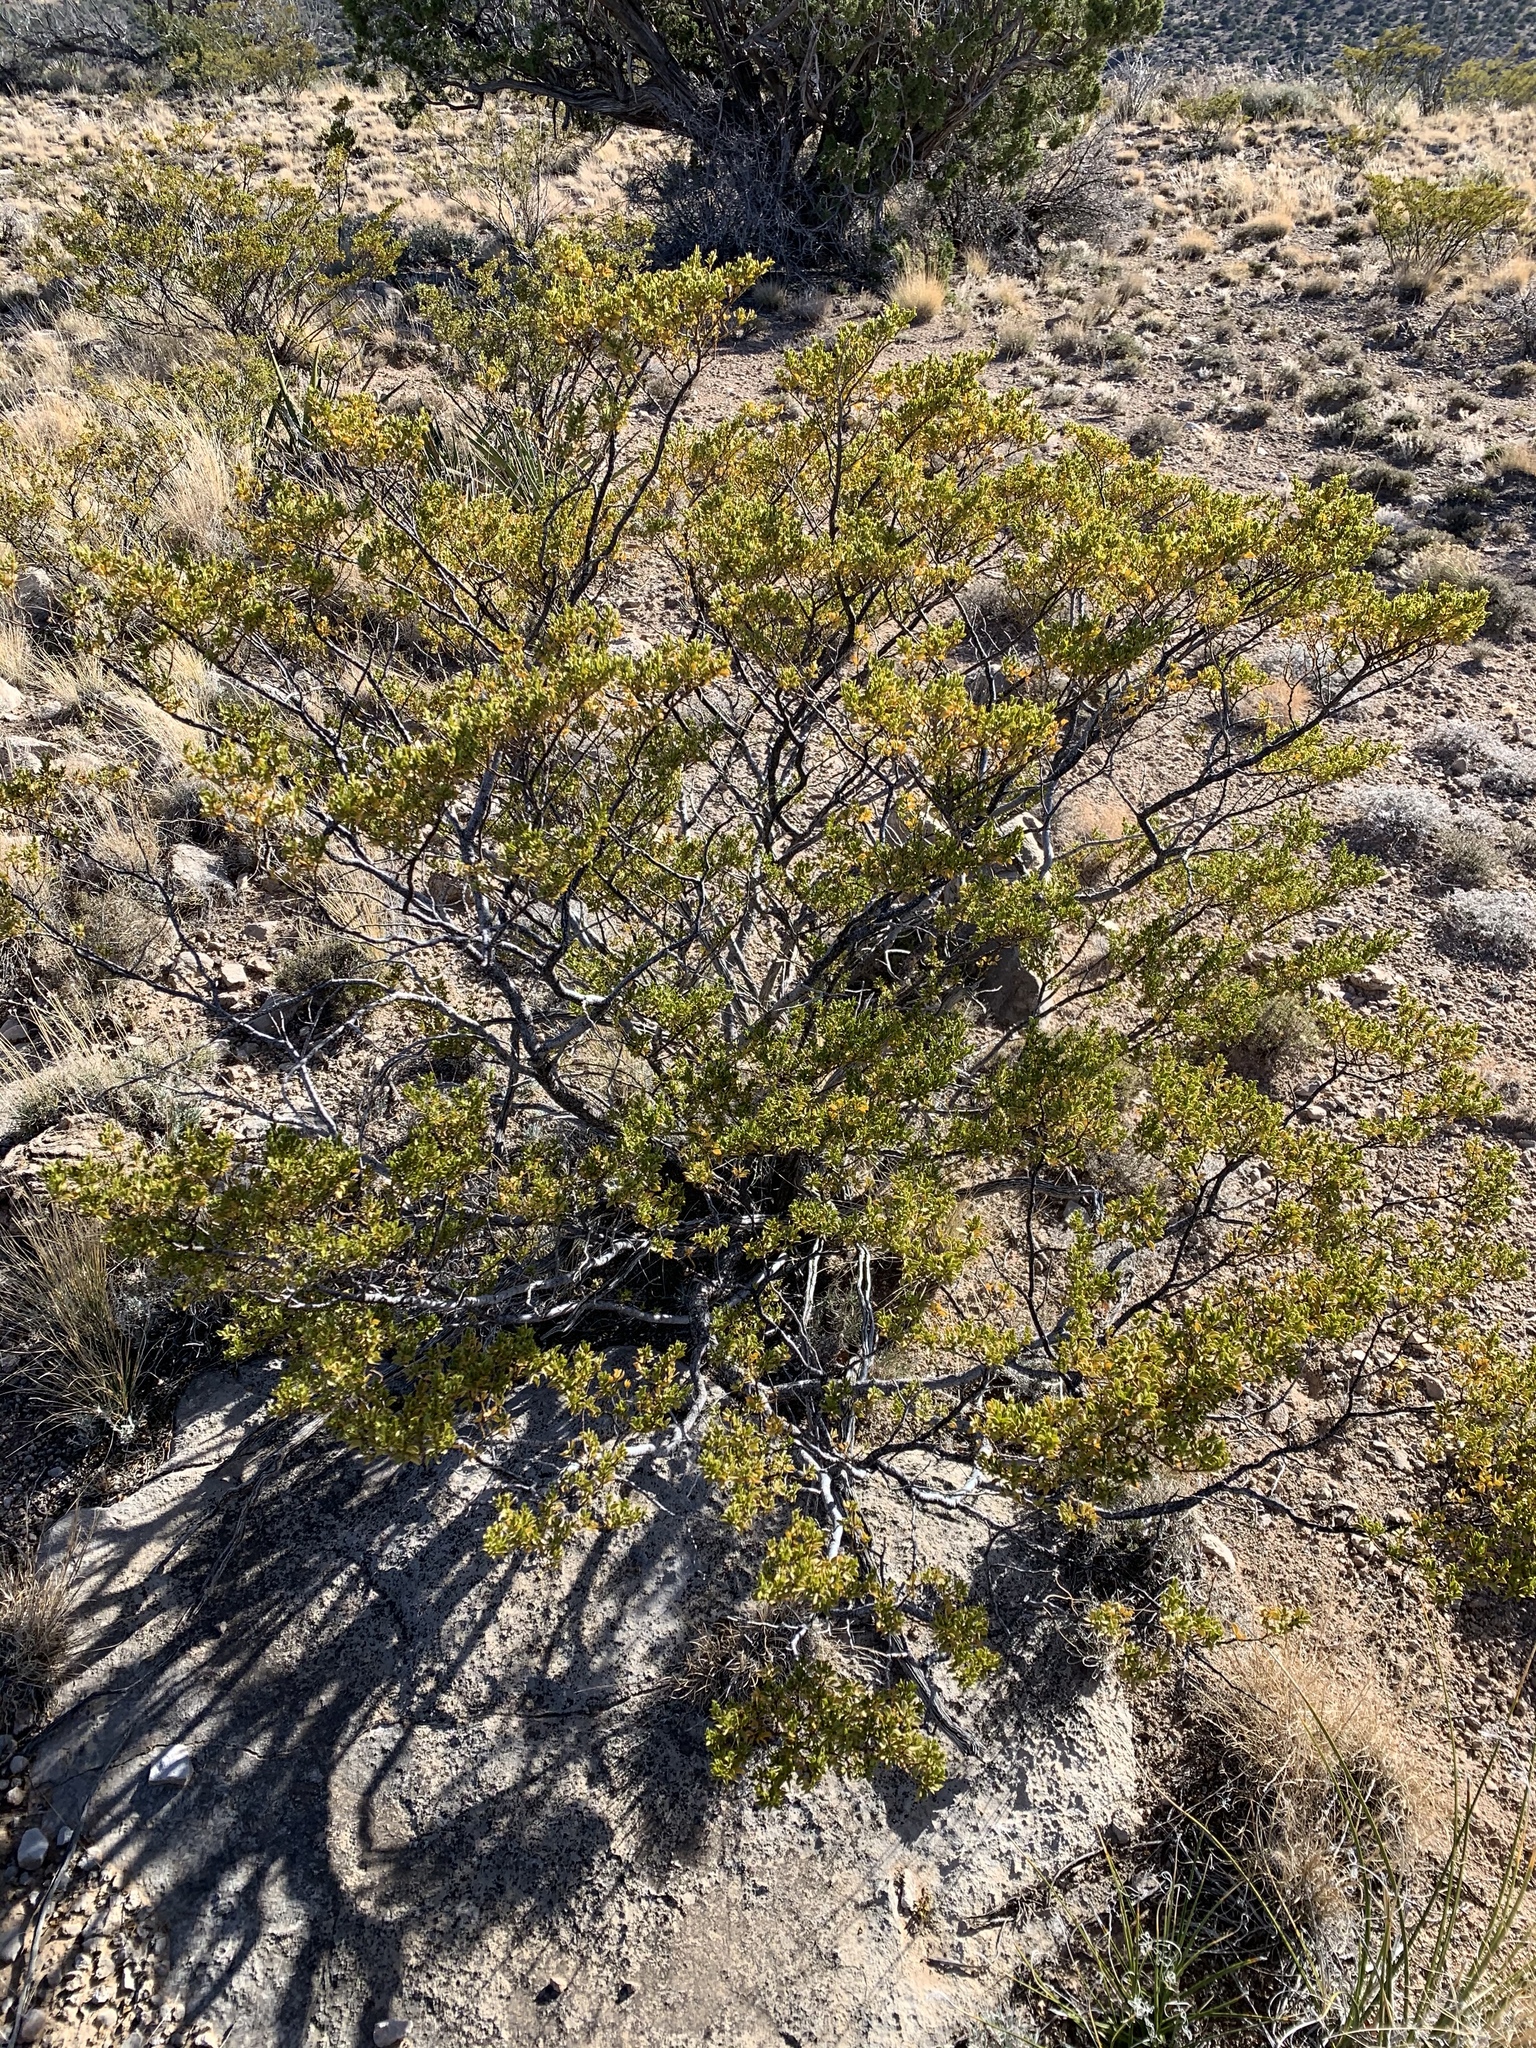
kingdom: Plantae
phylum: Tracheophyta
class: Magnoliopsida
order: Zygophyllales
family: Zygophyllaceae
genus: Larrea
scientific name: Larrea tridentata
